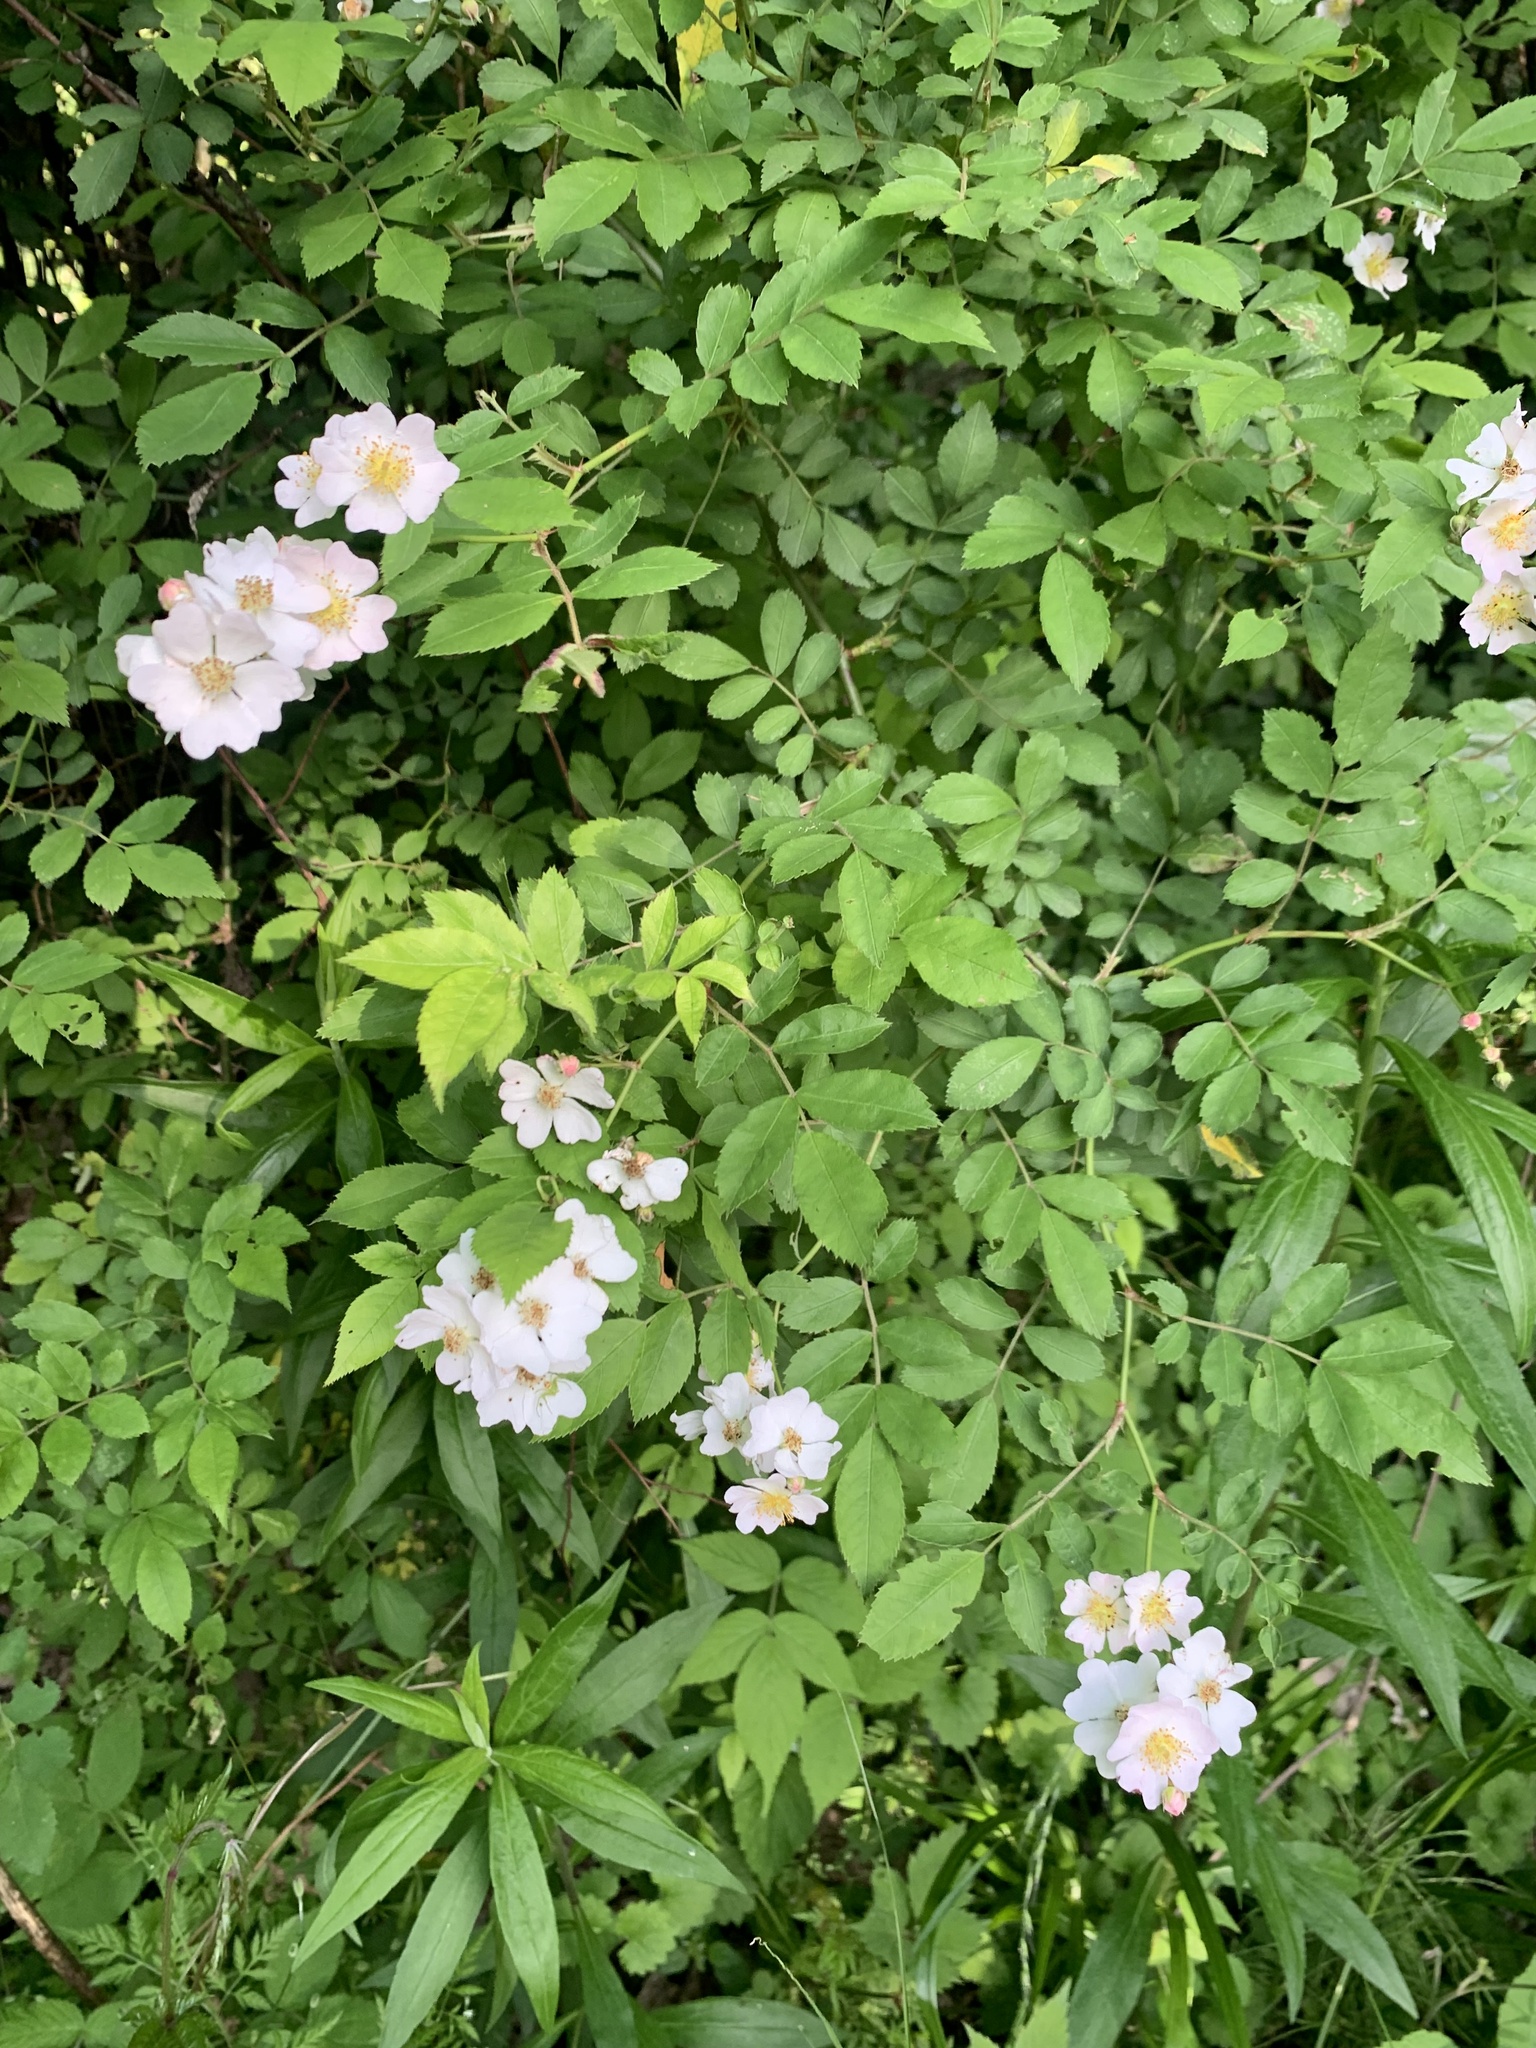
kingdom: Plantae
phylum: Tracheophyta
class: Magnoliopsida
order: Rosales
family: Rosaceae
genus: Rosa
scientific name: Rosa multiflora
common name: Multiflora rose
